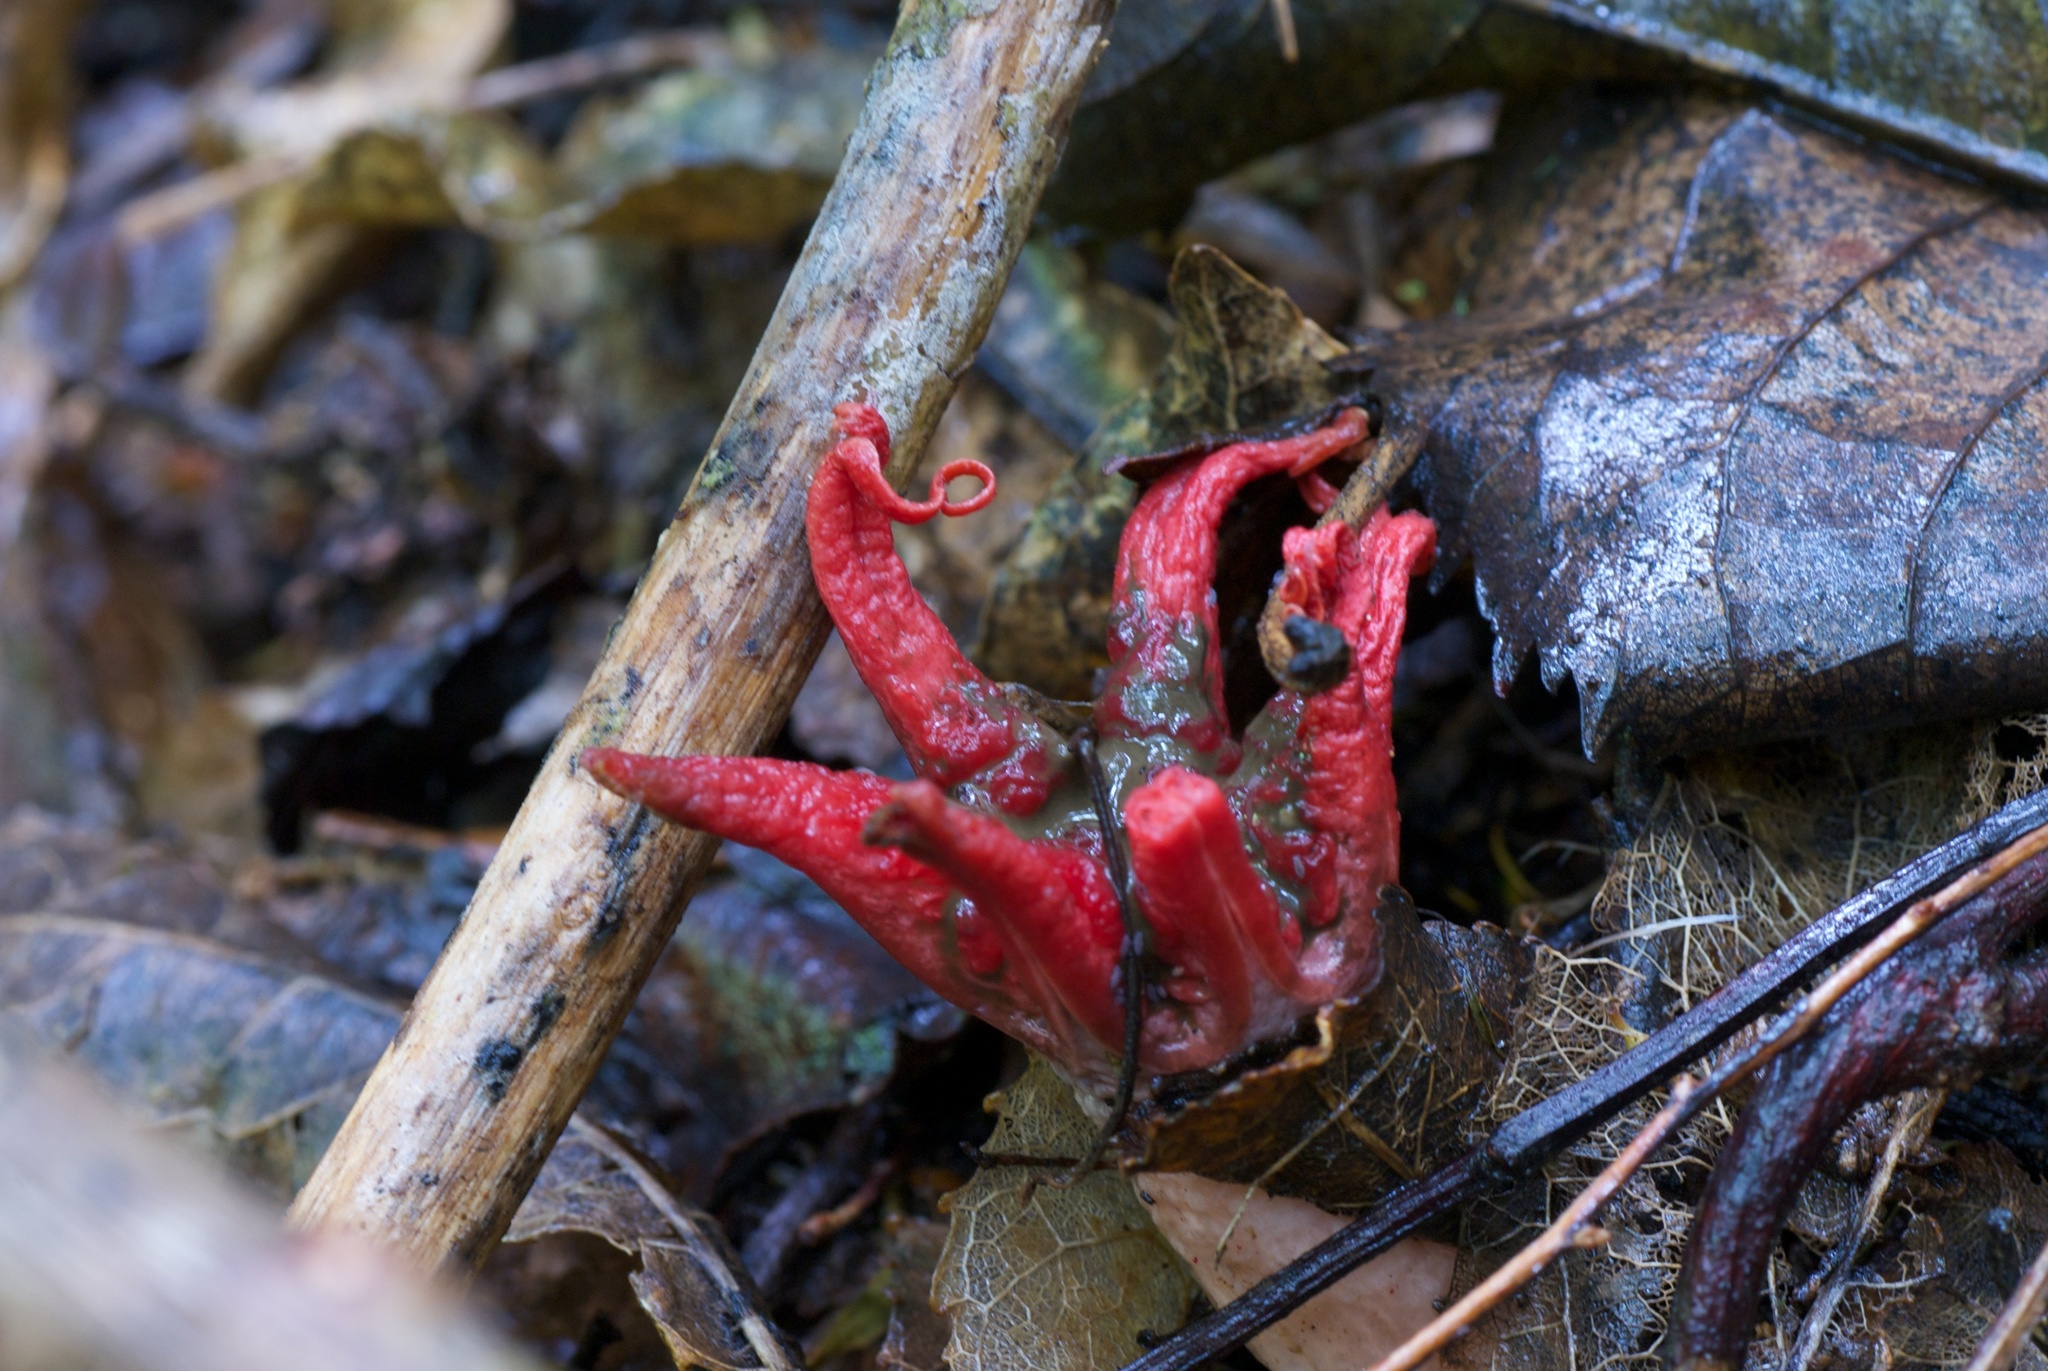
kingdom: Fungi
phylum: Basidiomycota
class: Agaricomycetes
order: Phallales
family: Phallaceae
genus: Aseroe
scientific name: Aseroe rubra
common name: Starfish fungus
